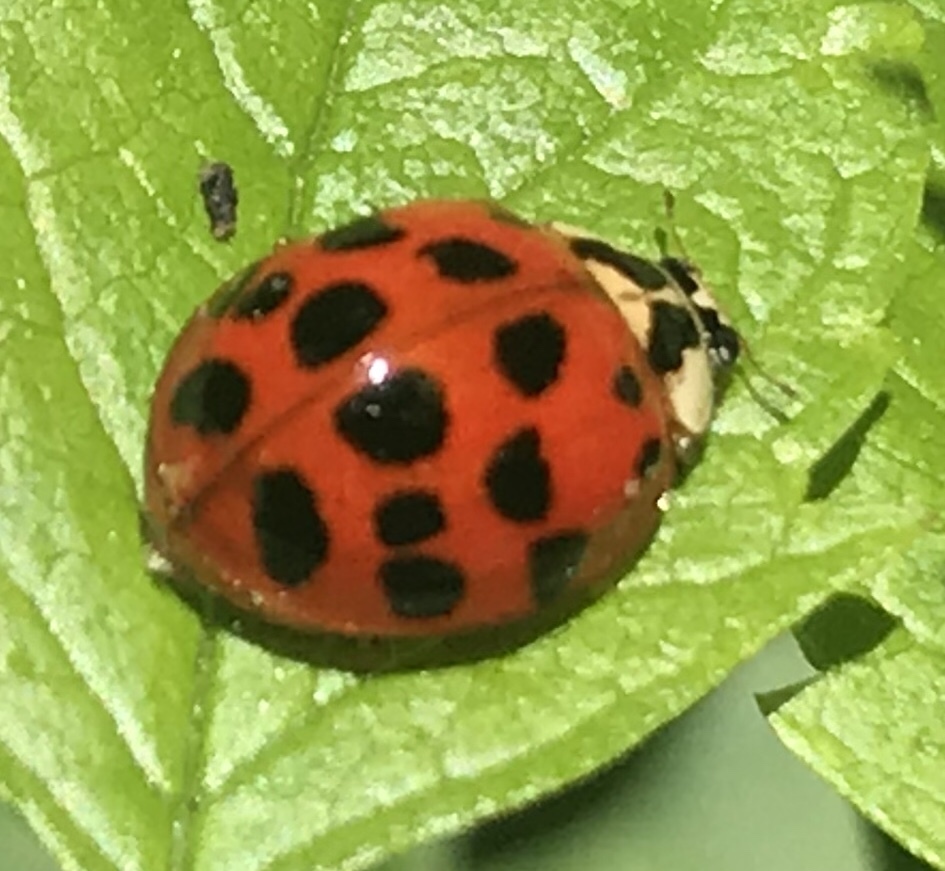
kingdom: Animalia
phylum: Arthropoda
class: Insecta
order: Coleoptera
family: Coccinellidae
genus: Harmonia
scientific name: Harmonia axyridis
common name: Harlequin ladybird
